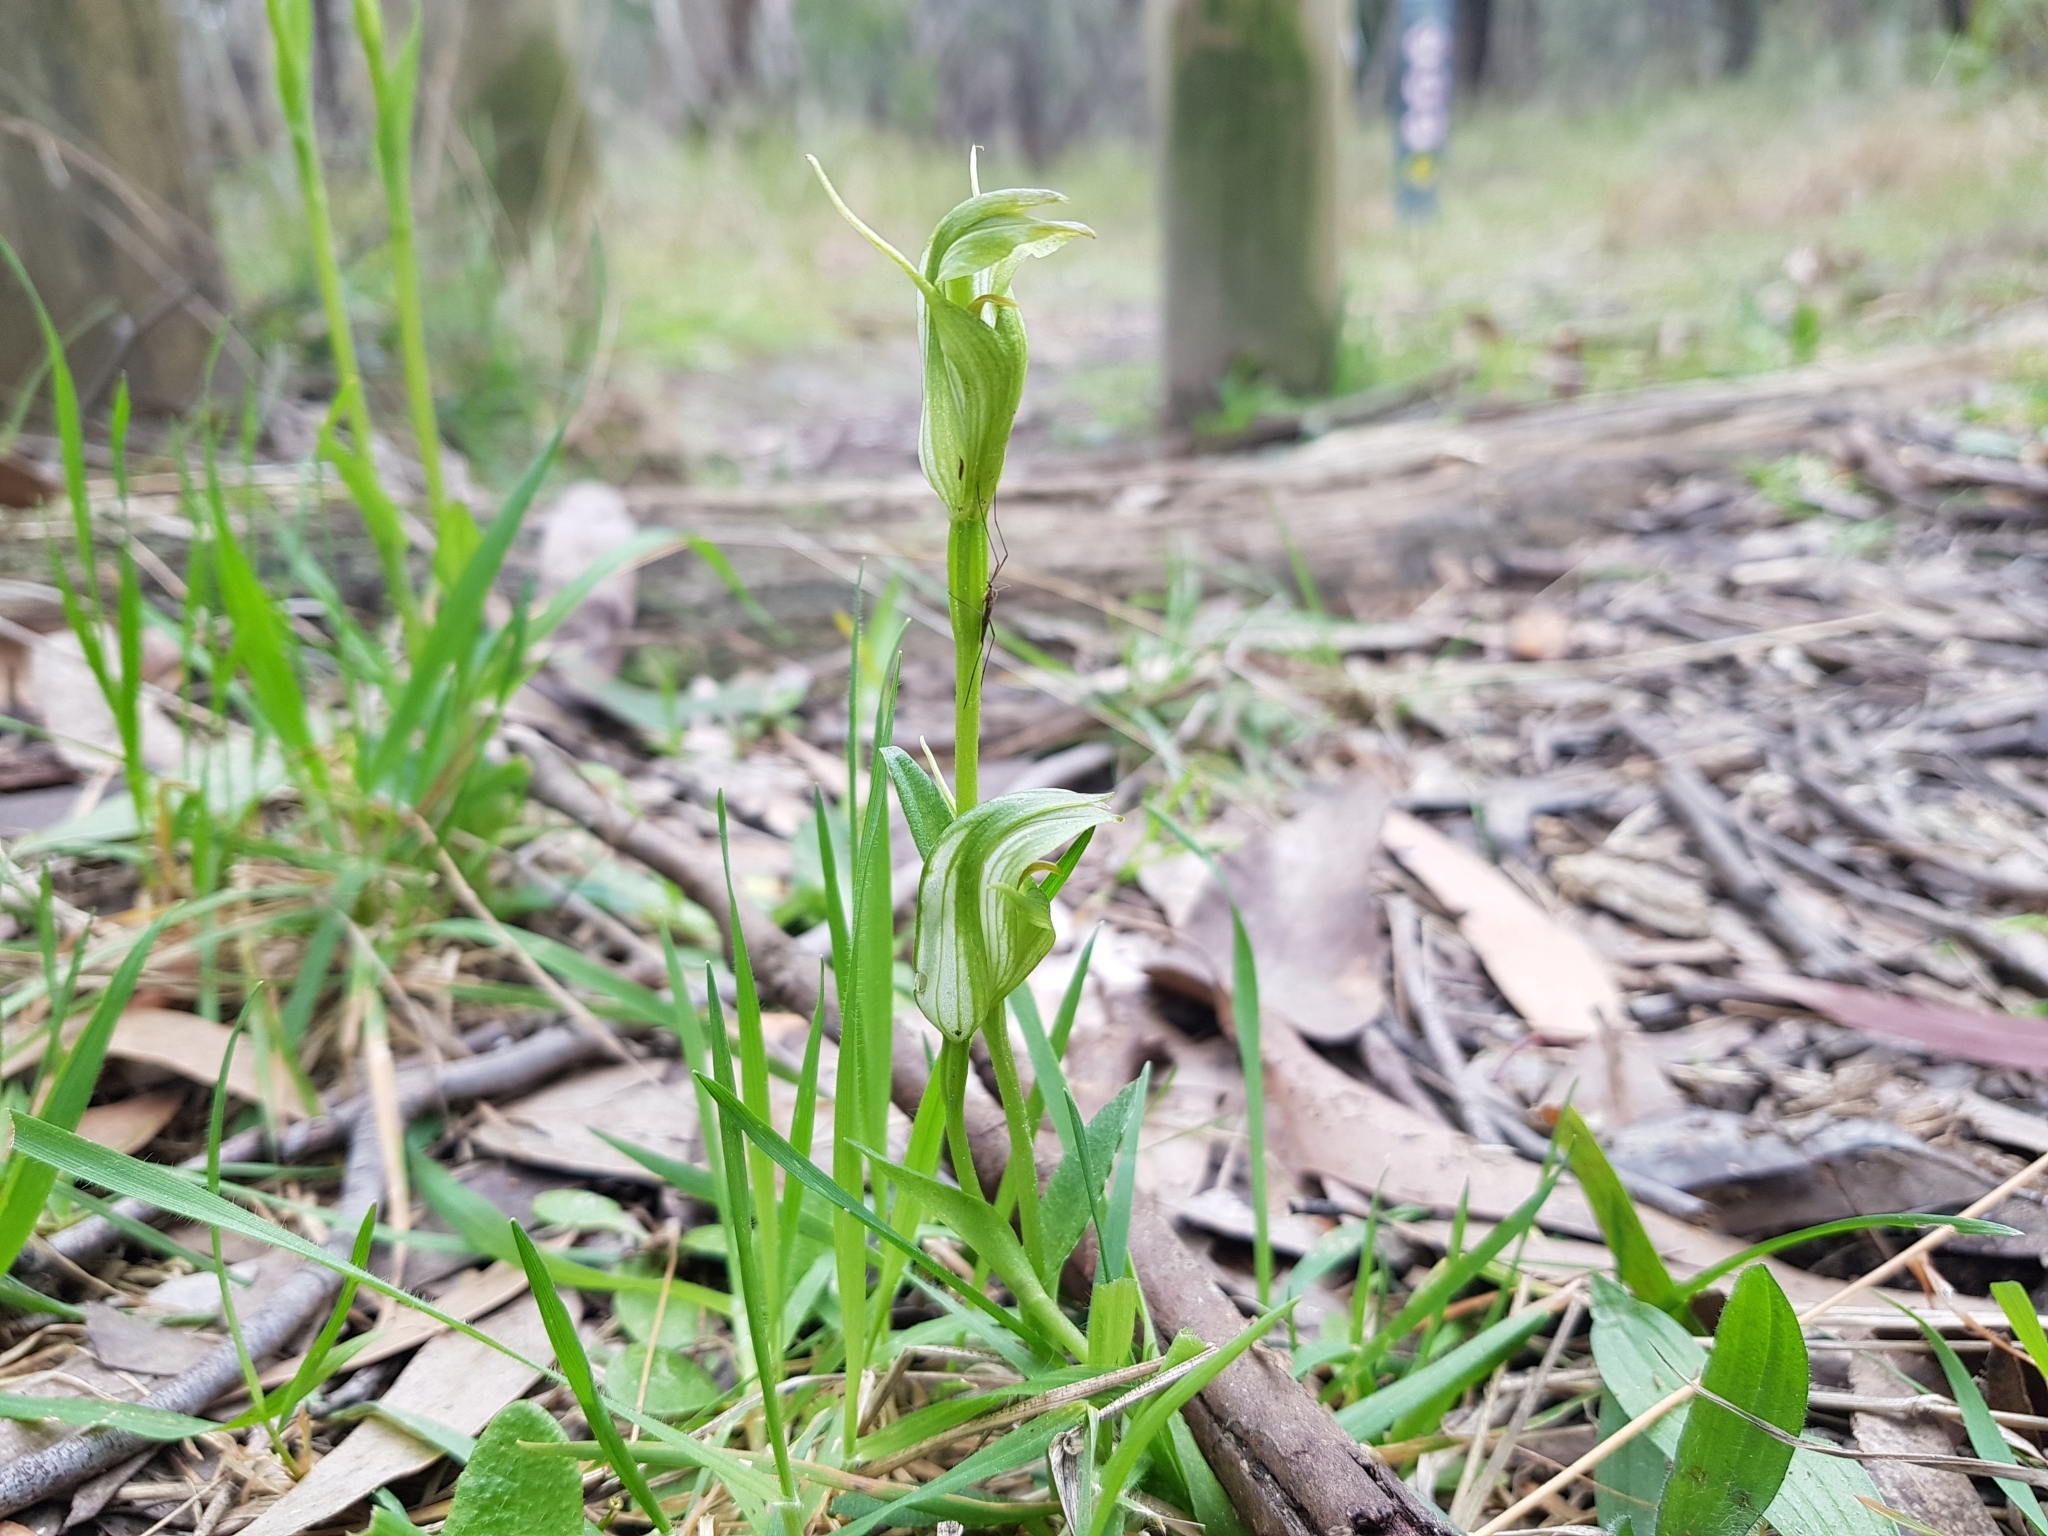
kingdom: Plantae
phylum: Tracheophyta
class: Liliopsida
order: Asparagales
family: Orchidaceae
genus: Pterostylis
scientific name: Pterostylis alpina
